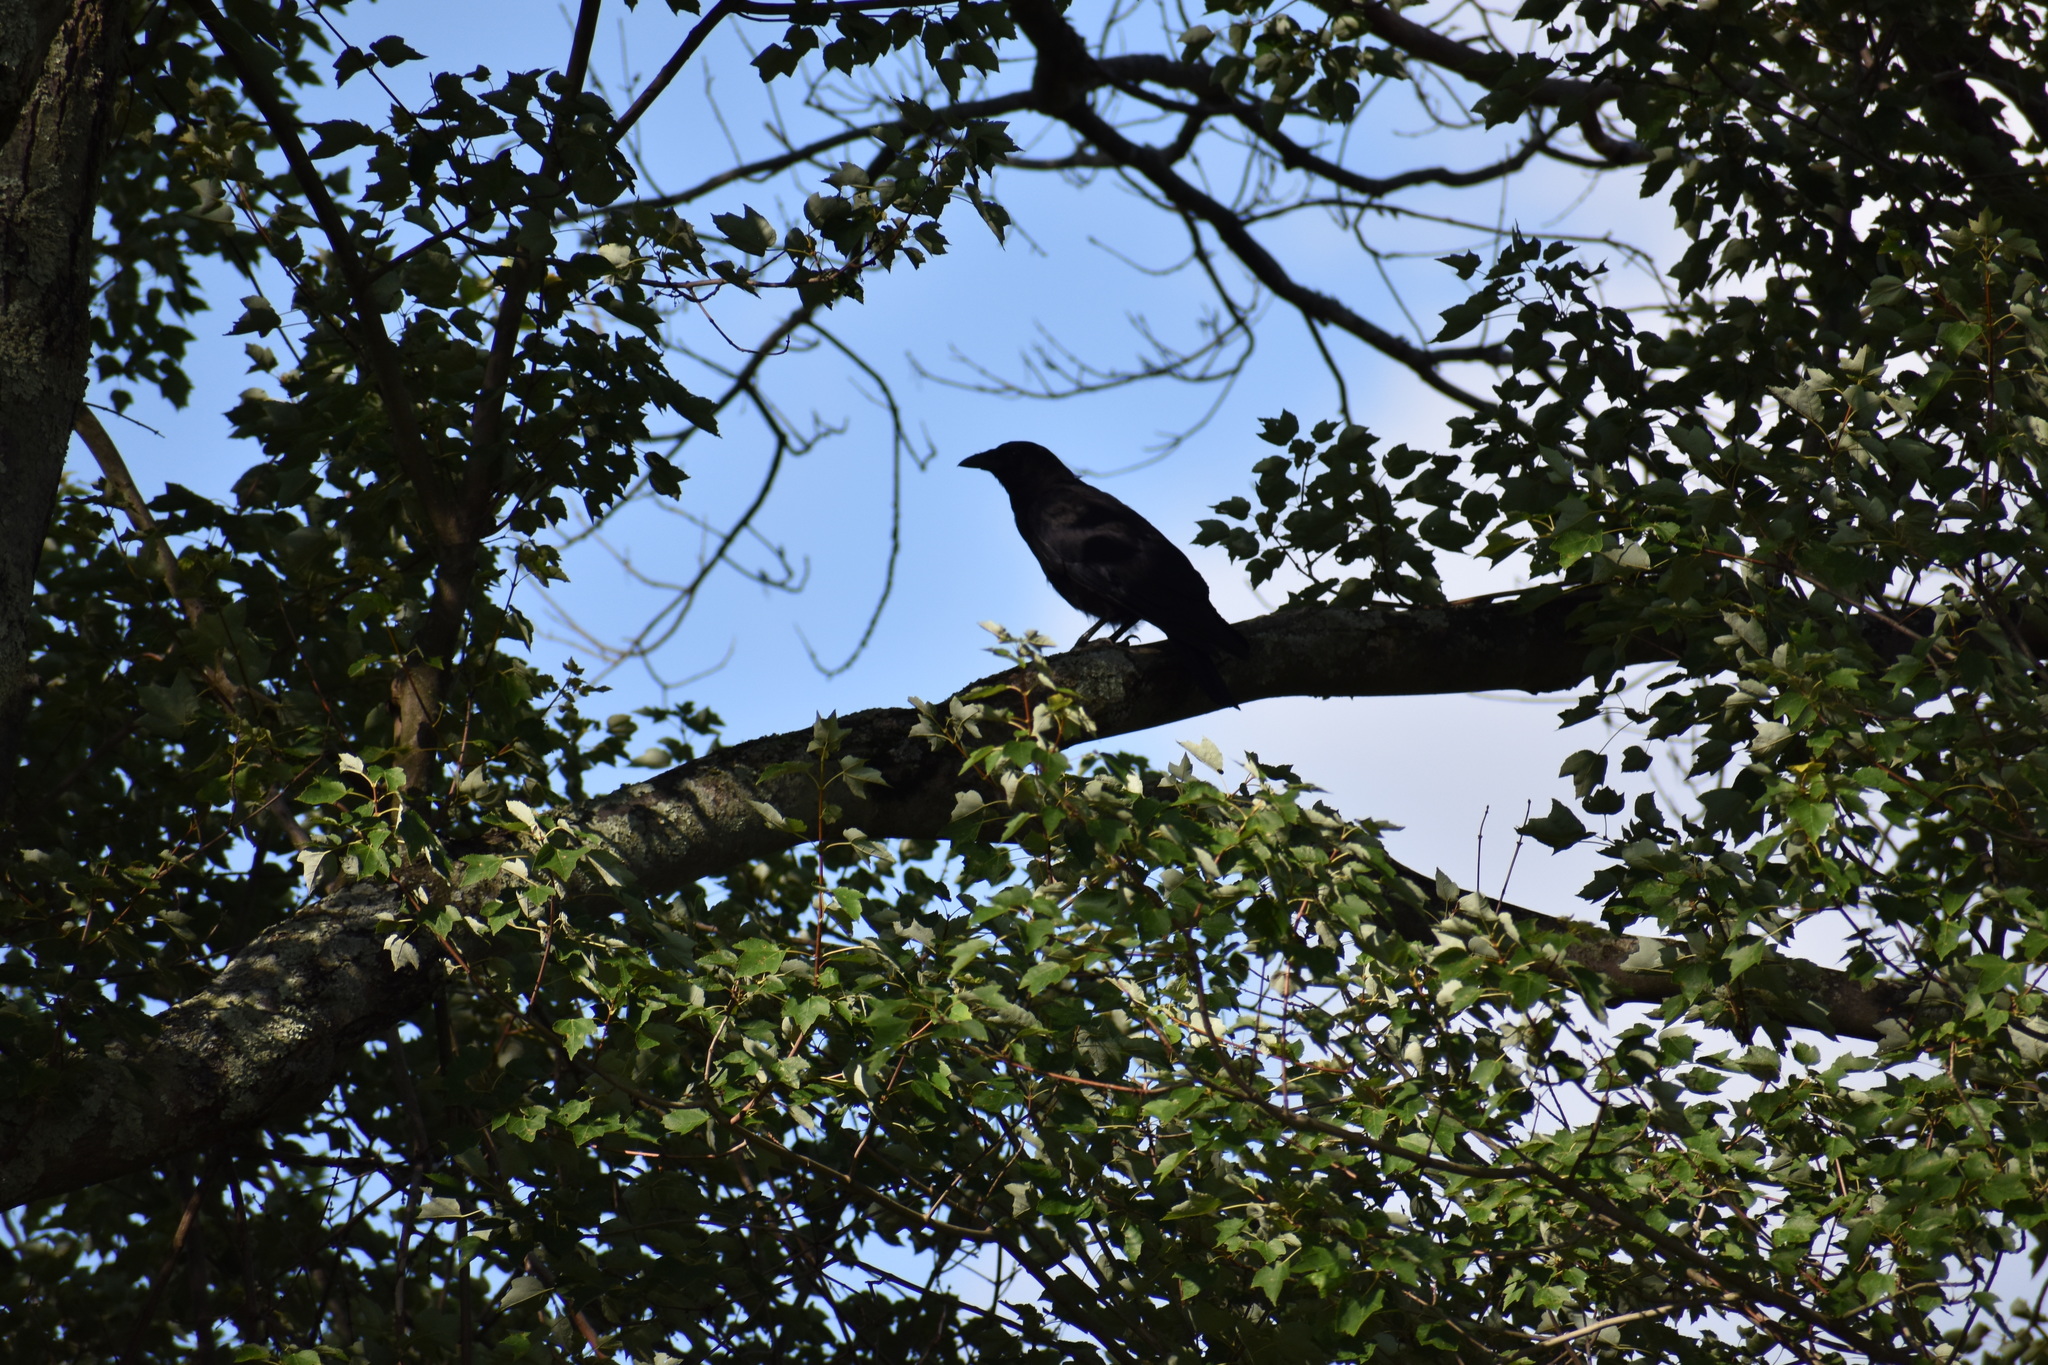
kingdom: Animalia
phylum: Chordata
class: Aves
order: Passeriformes
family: Corvidae
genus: Corvus
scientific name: Corvus brachyrhynchos
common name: American crow
